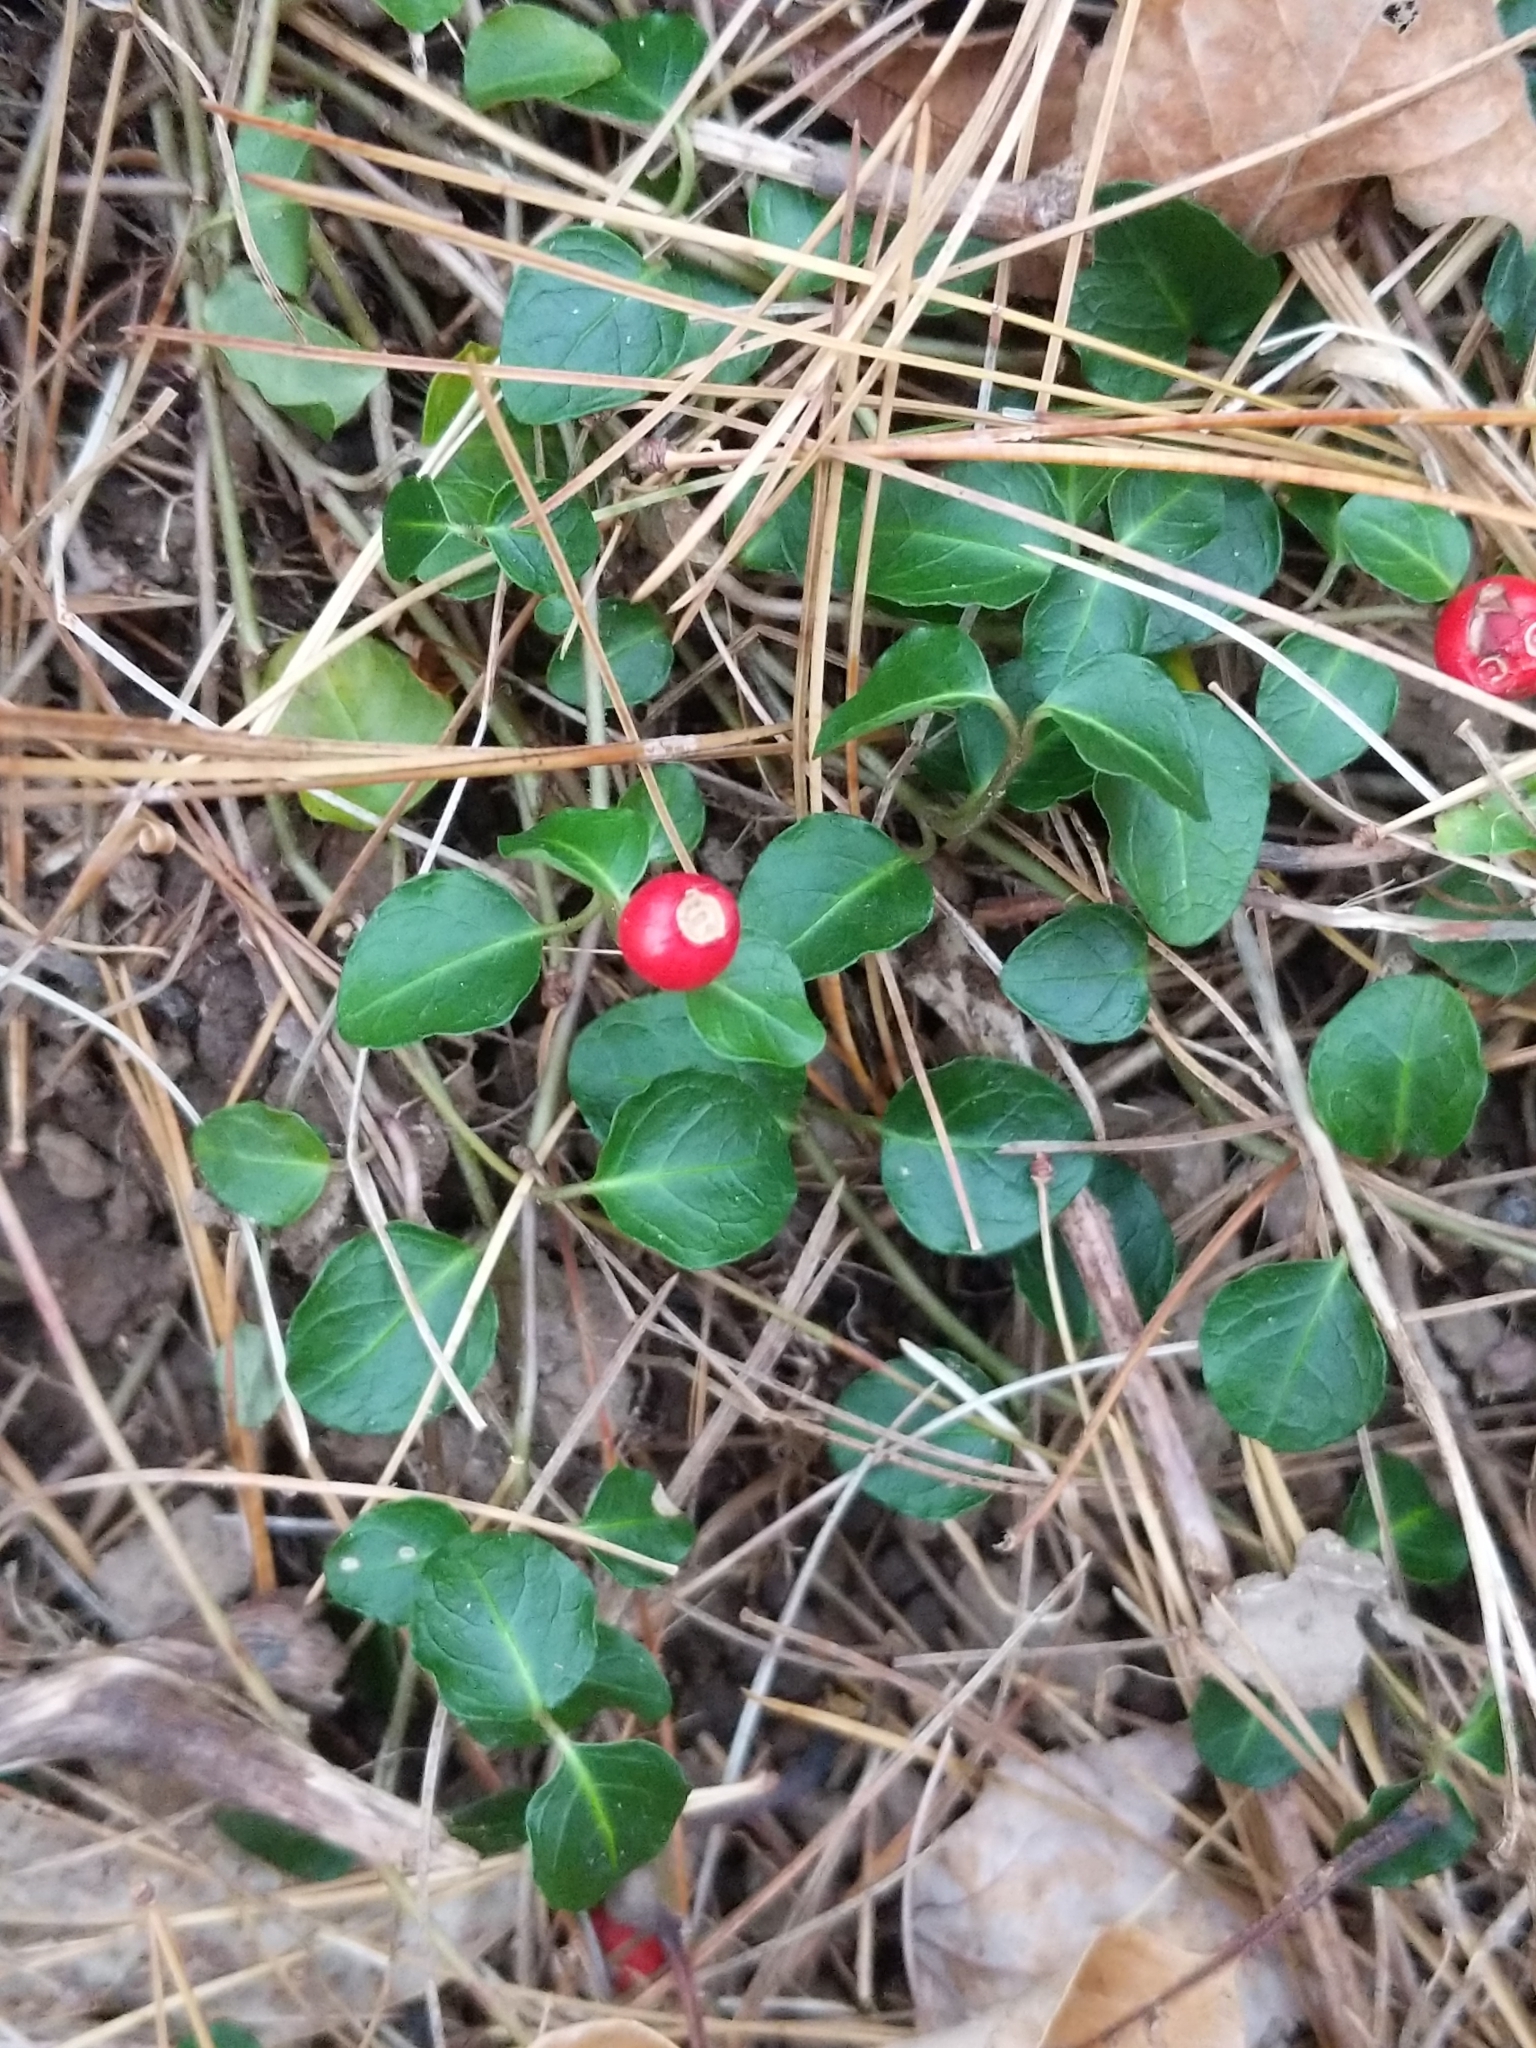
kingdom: Plantae
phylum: Tracheophyta
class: Magnoliopsida
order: Gentianales
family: Rubiaceae
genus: Mitchella
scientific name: Mitchella repens
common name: Partridge-berry
